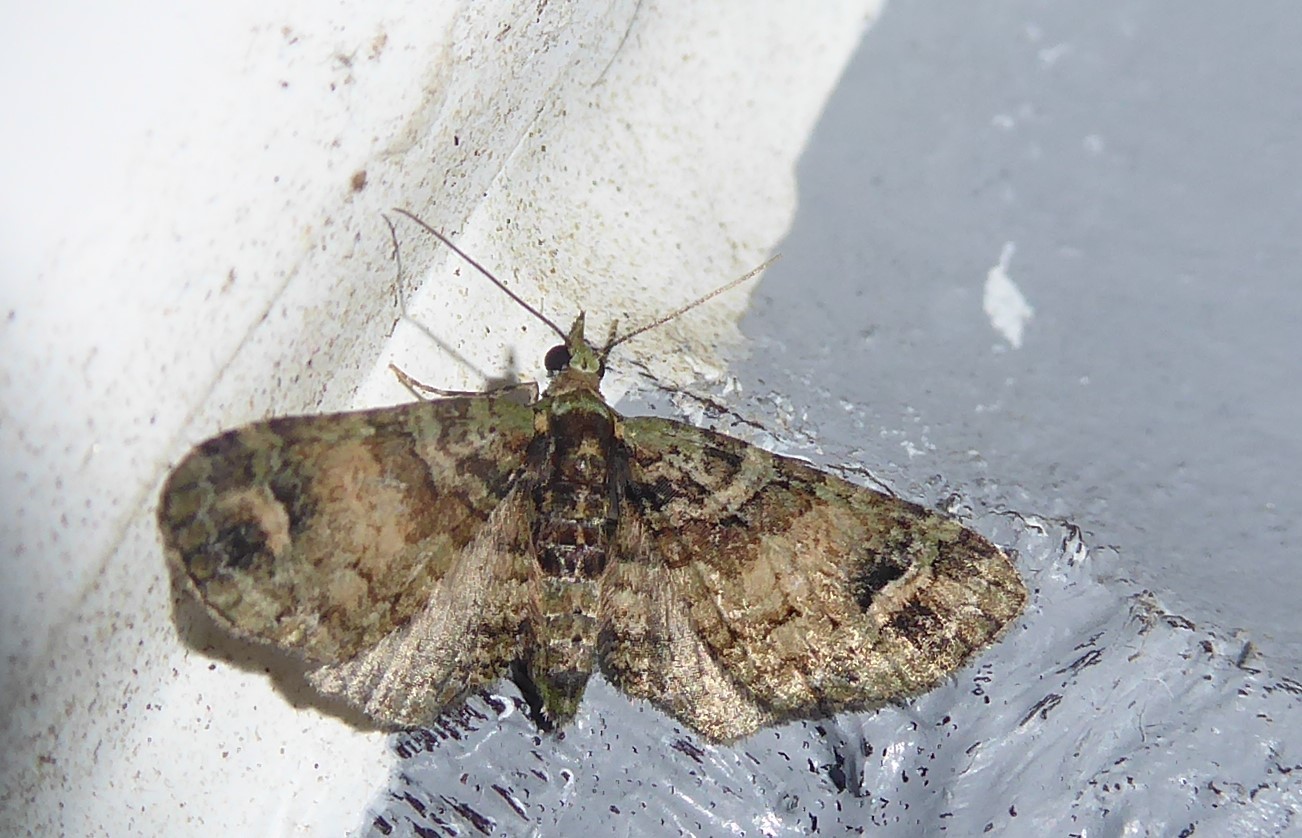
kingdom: Animalia
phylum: Arthropoda
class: Insecta
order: Lepidoptera
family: Geometridae
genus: Idaea
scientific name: Idaea mutanda
